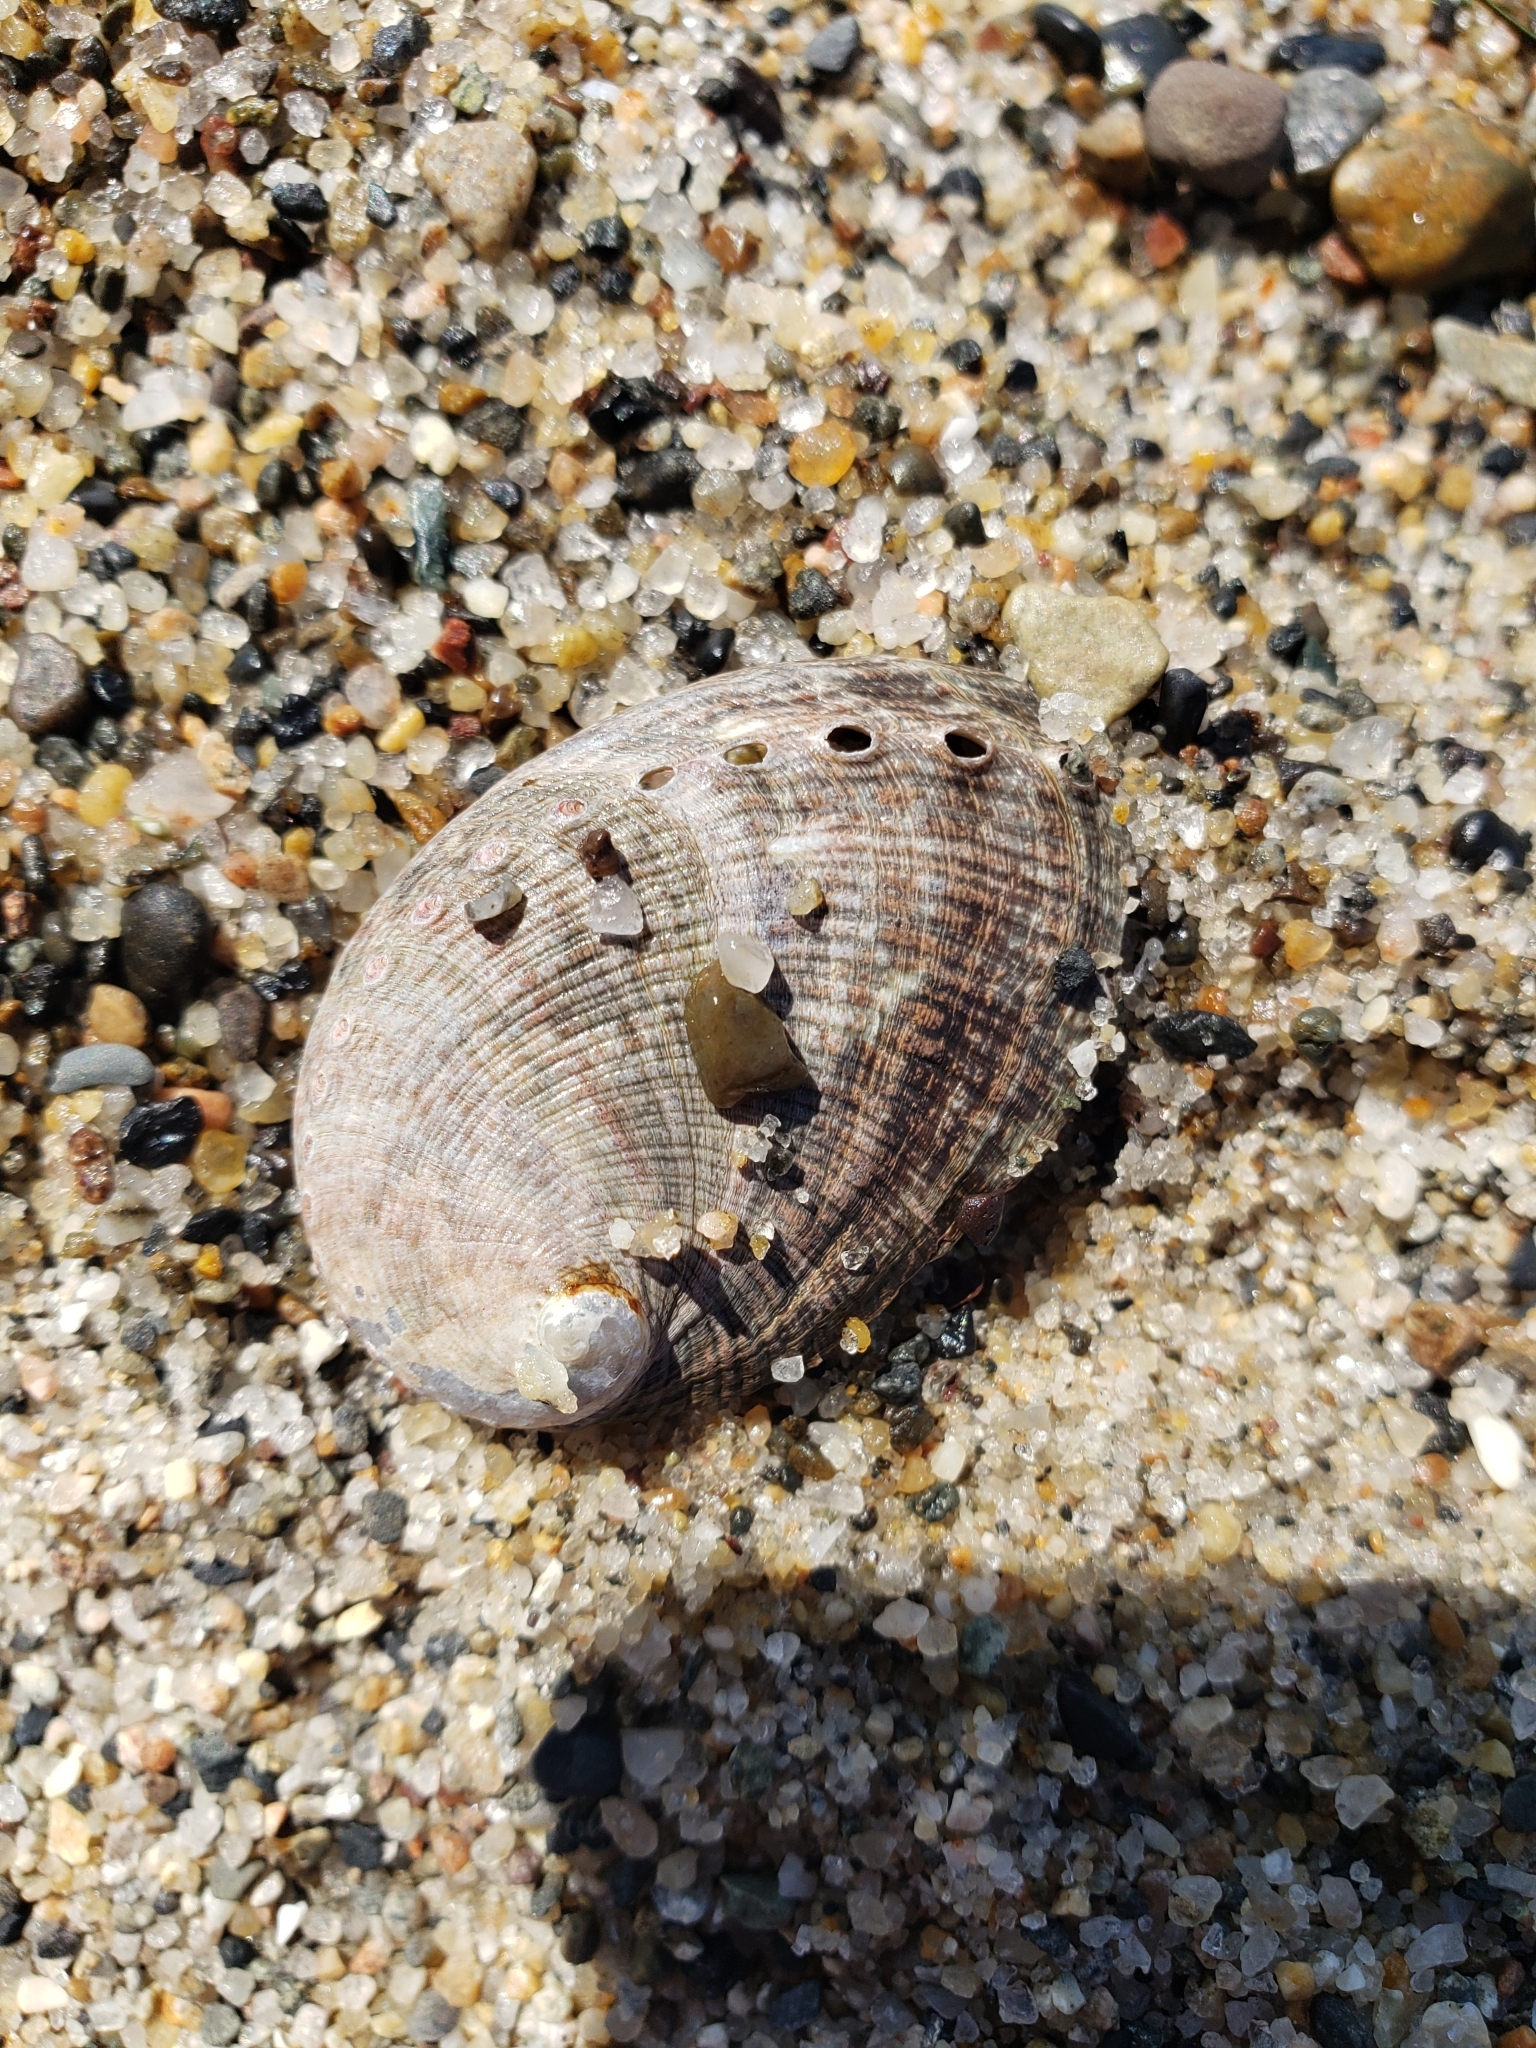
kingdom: Animalia
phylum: Mollusca
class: Gastropoda
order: Lepetellida
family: Haliotidae
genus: Haliotis
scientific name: Haliotis fulgens
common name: Green abalone
